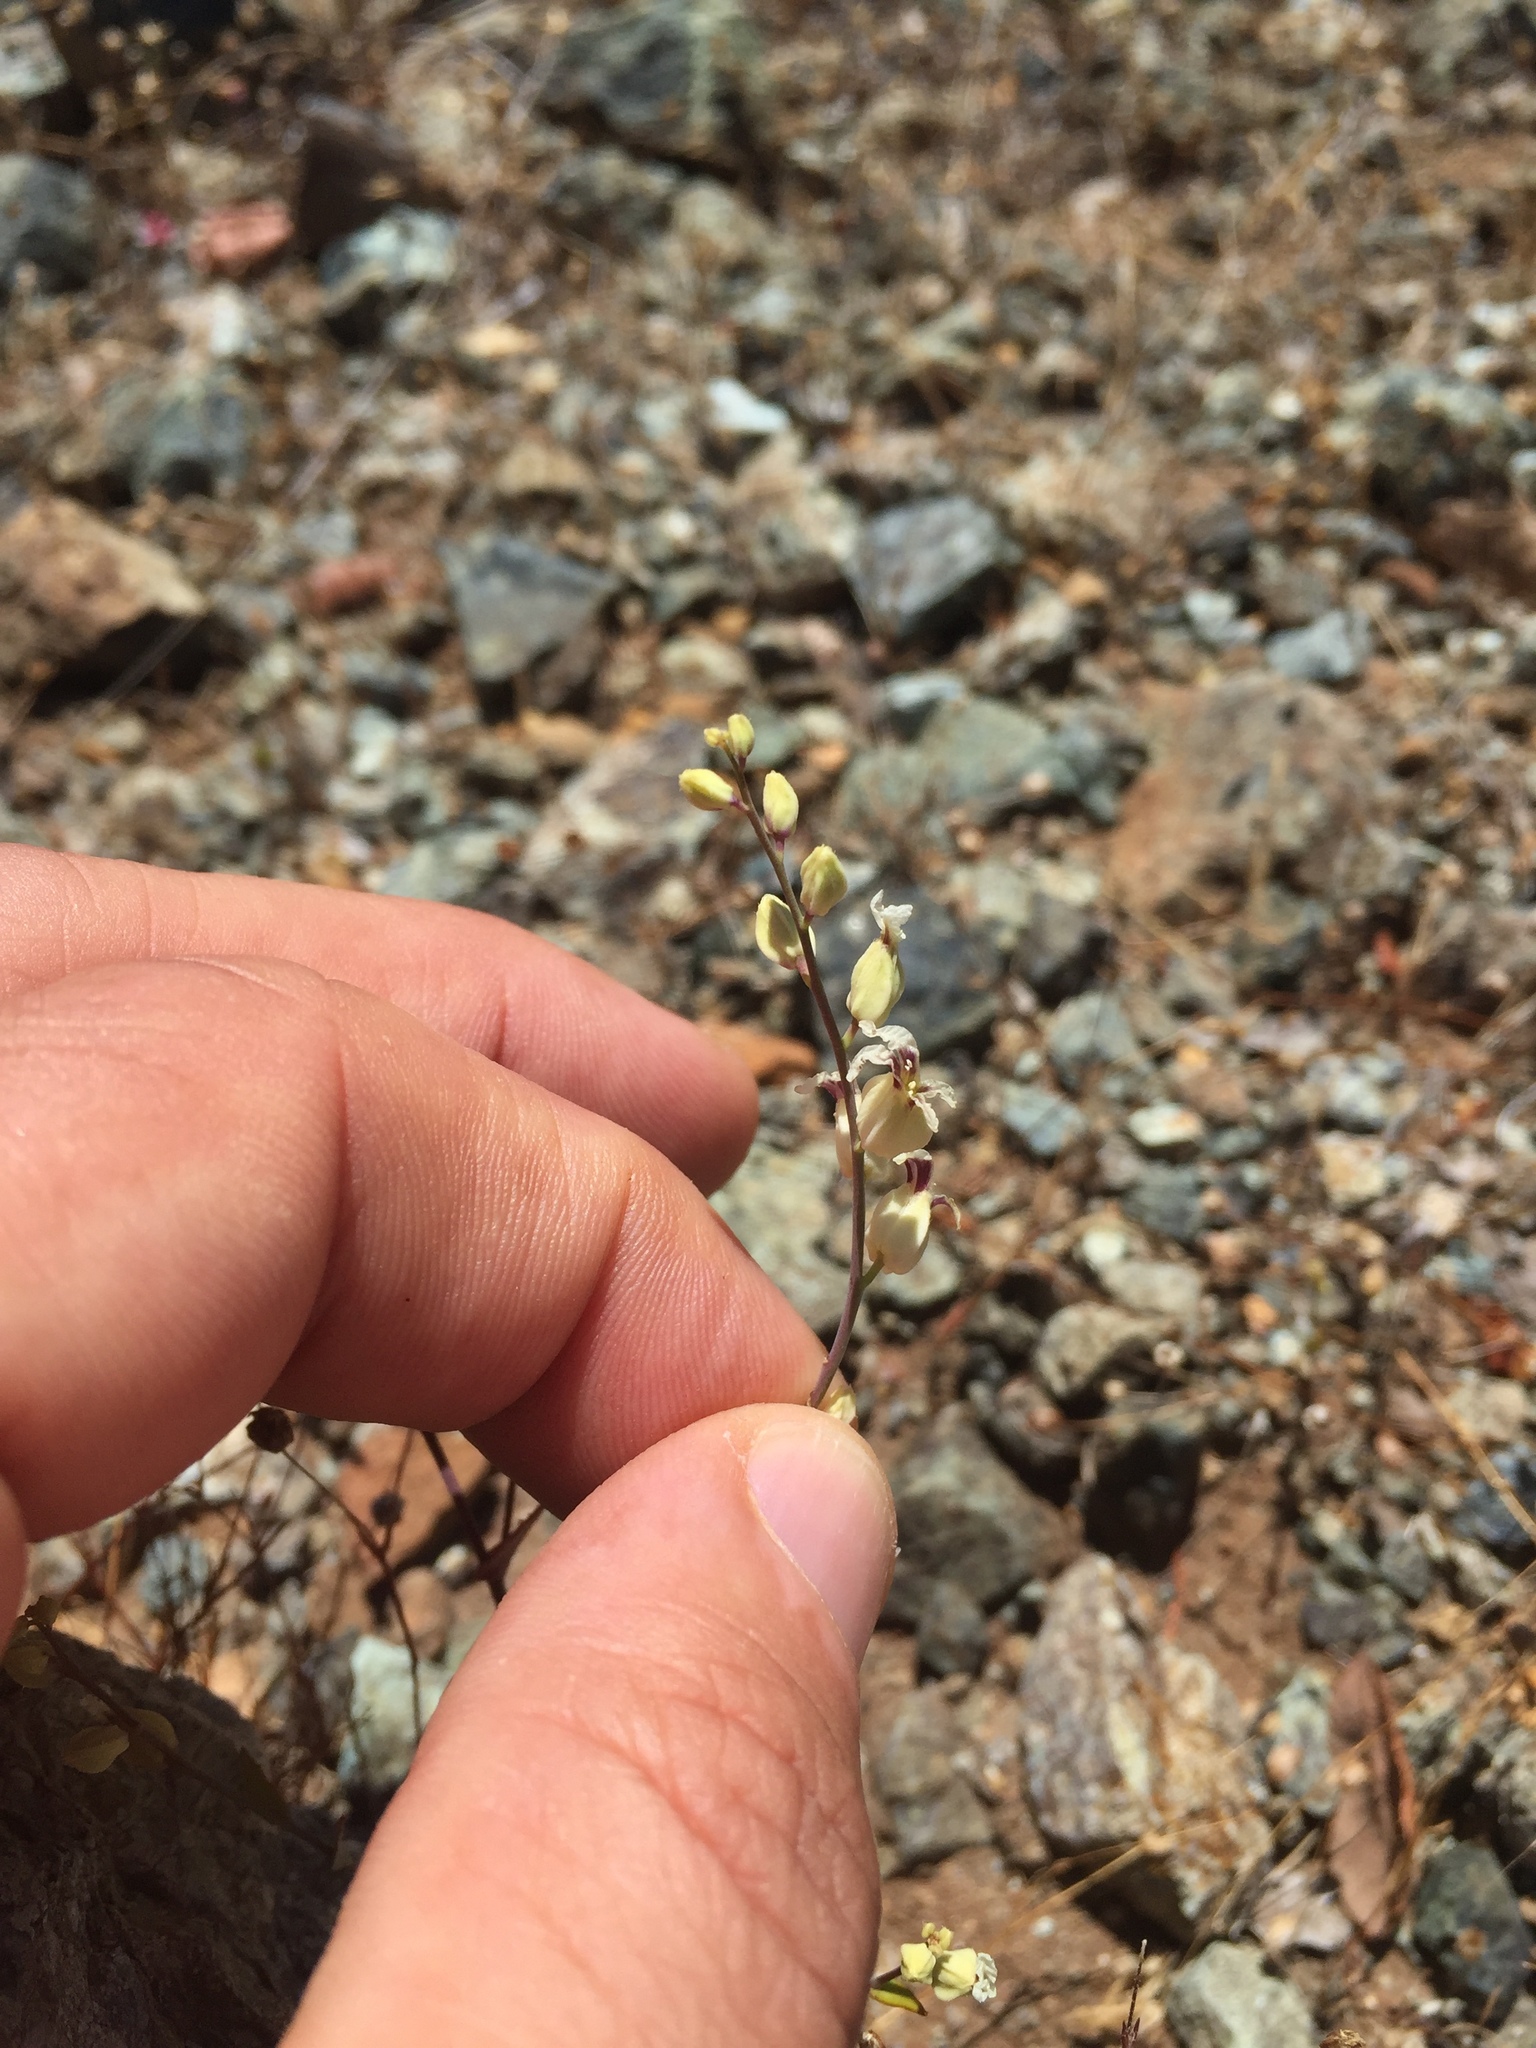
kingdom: Plantae
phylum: Tracheophyta
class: Magnoliopsida
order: Brassicales
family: Brassicaceae
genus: Streptanthus
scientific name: Streptanthus glandulosus
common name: Jewel-flower
